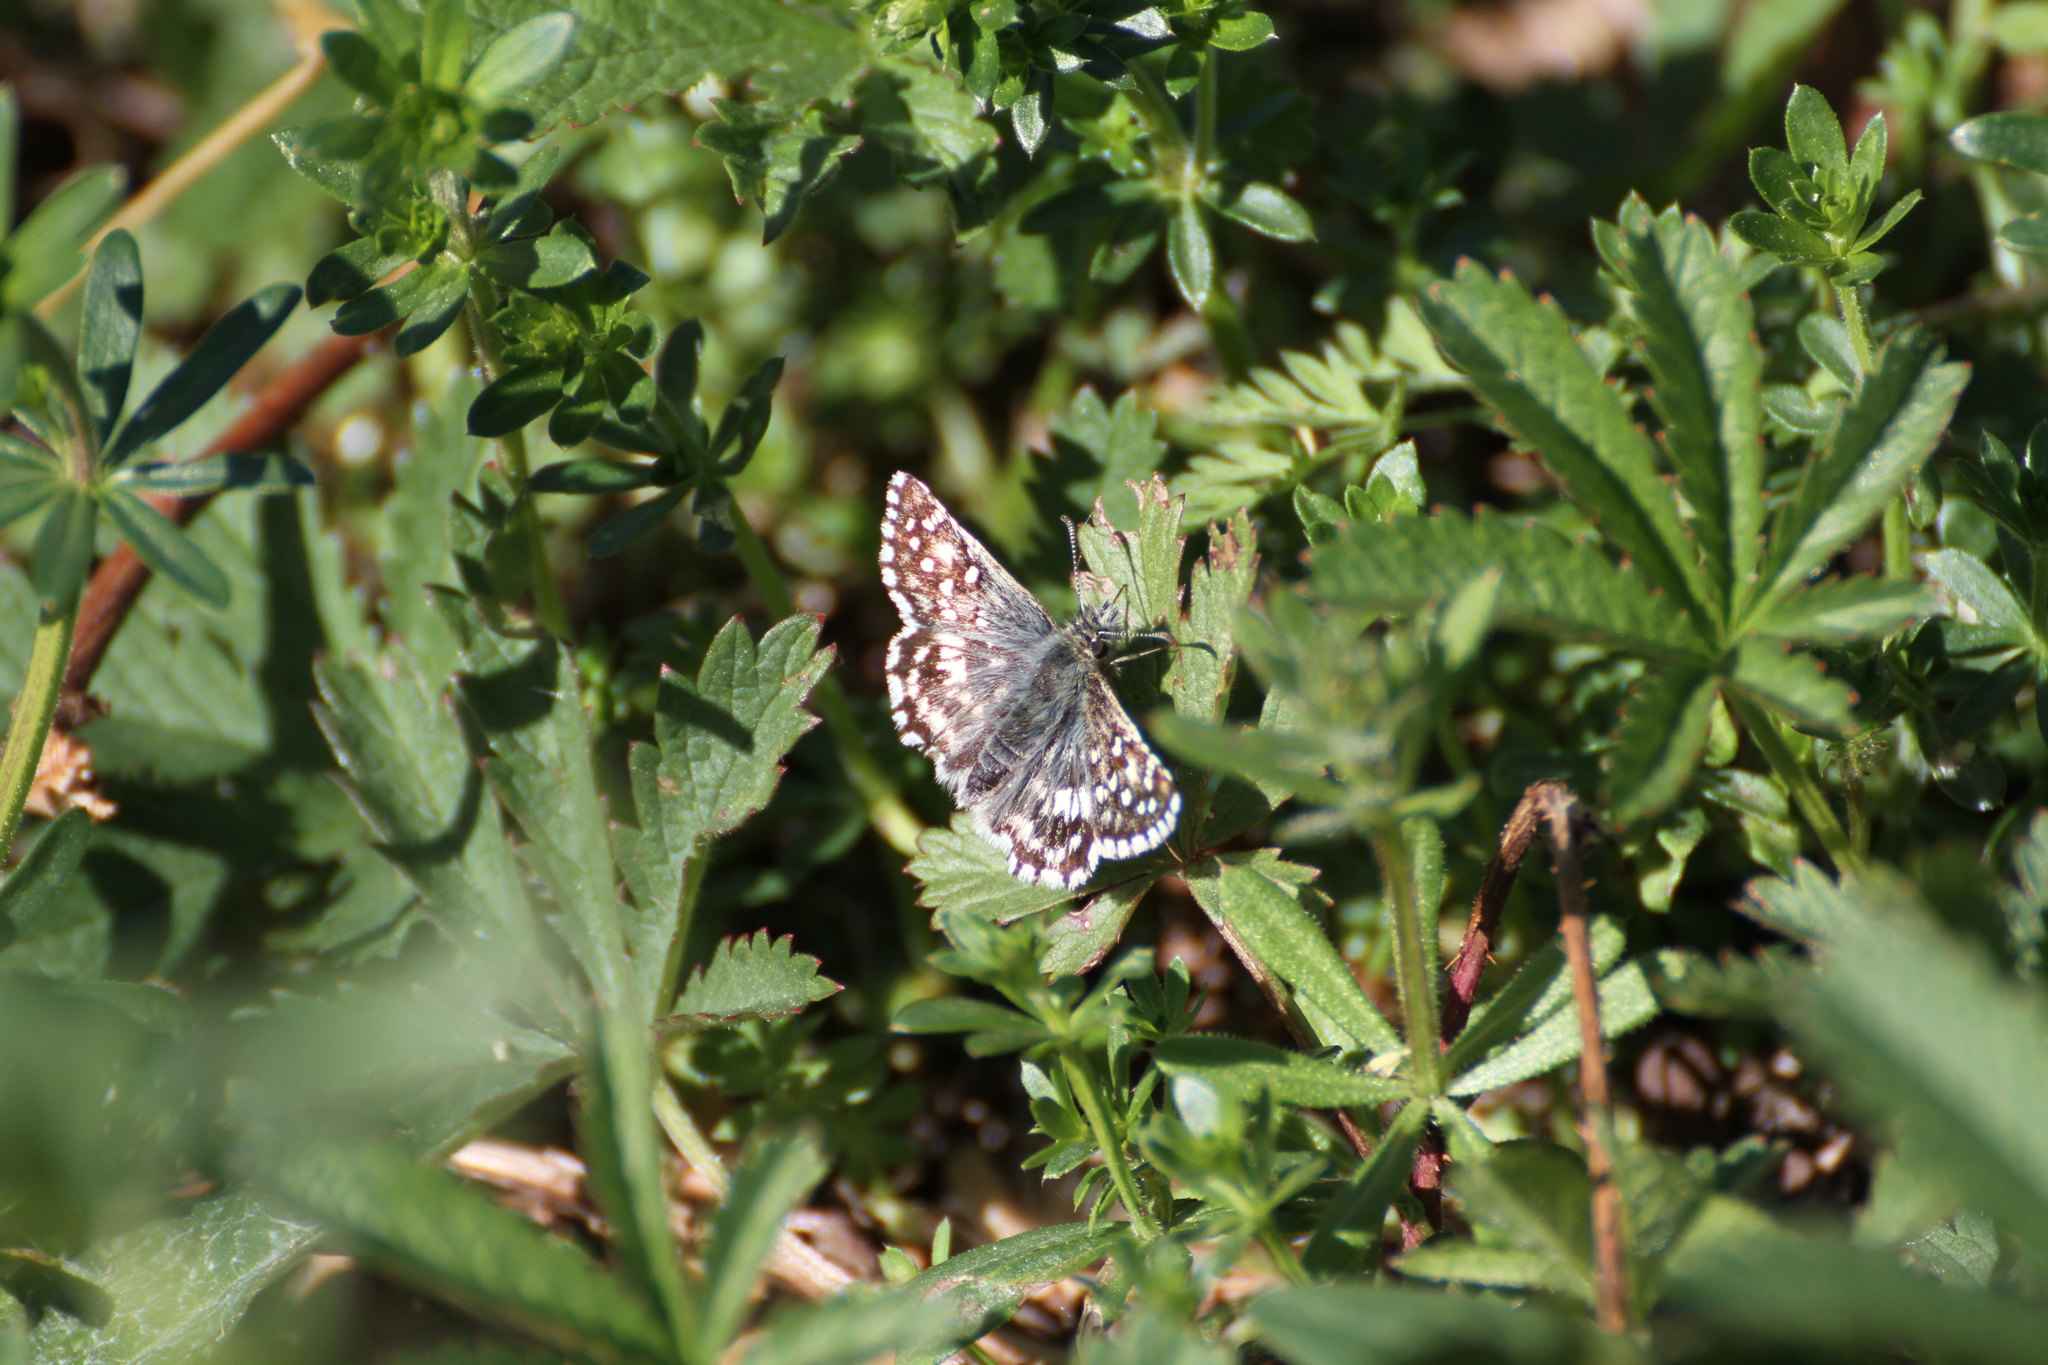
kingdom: Animalia
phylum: Arthropoda
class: Insecta
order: Lepidoptera
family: Hesperiidae
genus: Pyrgus
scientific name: Pyrgus malvoides
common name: Southern grizzled skipper
